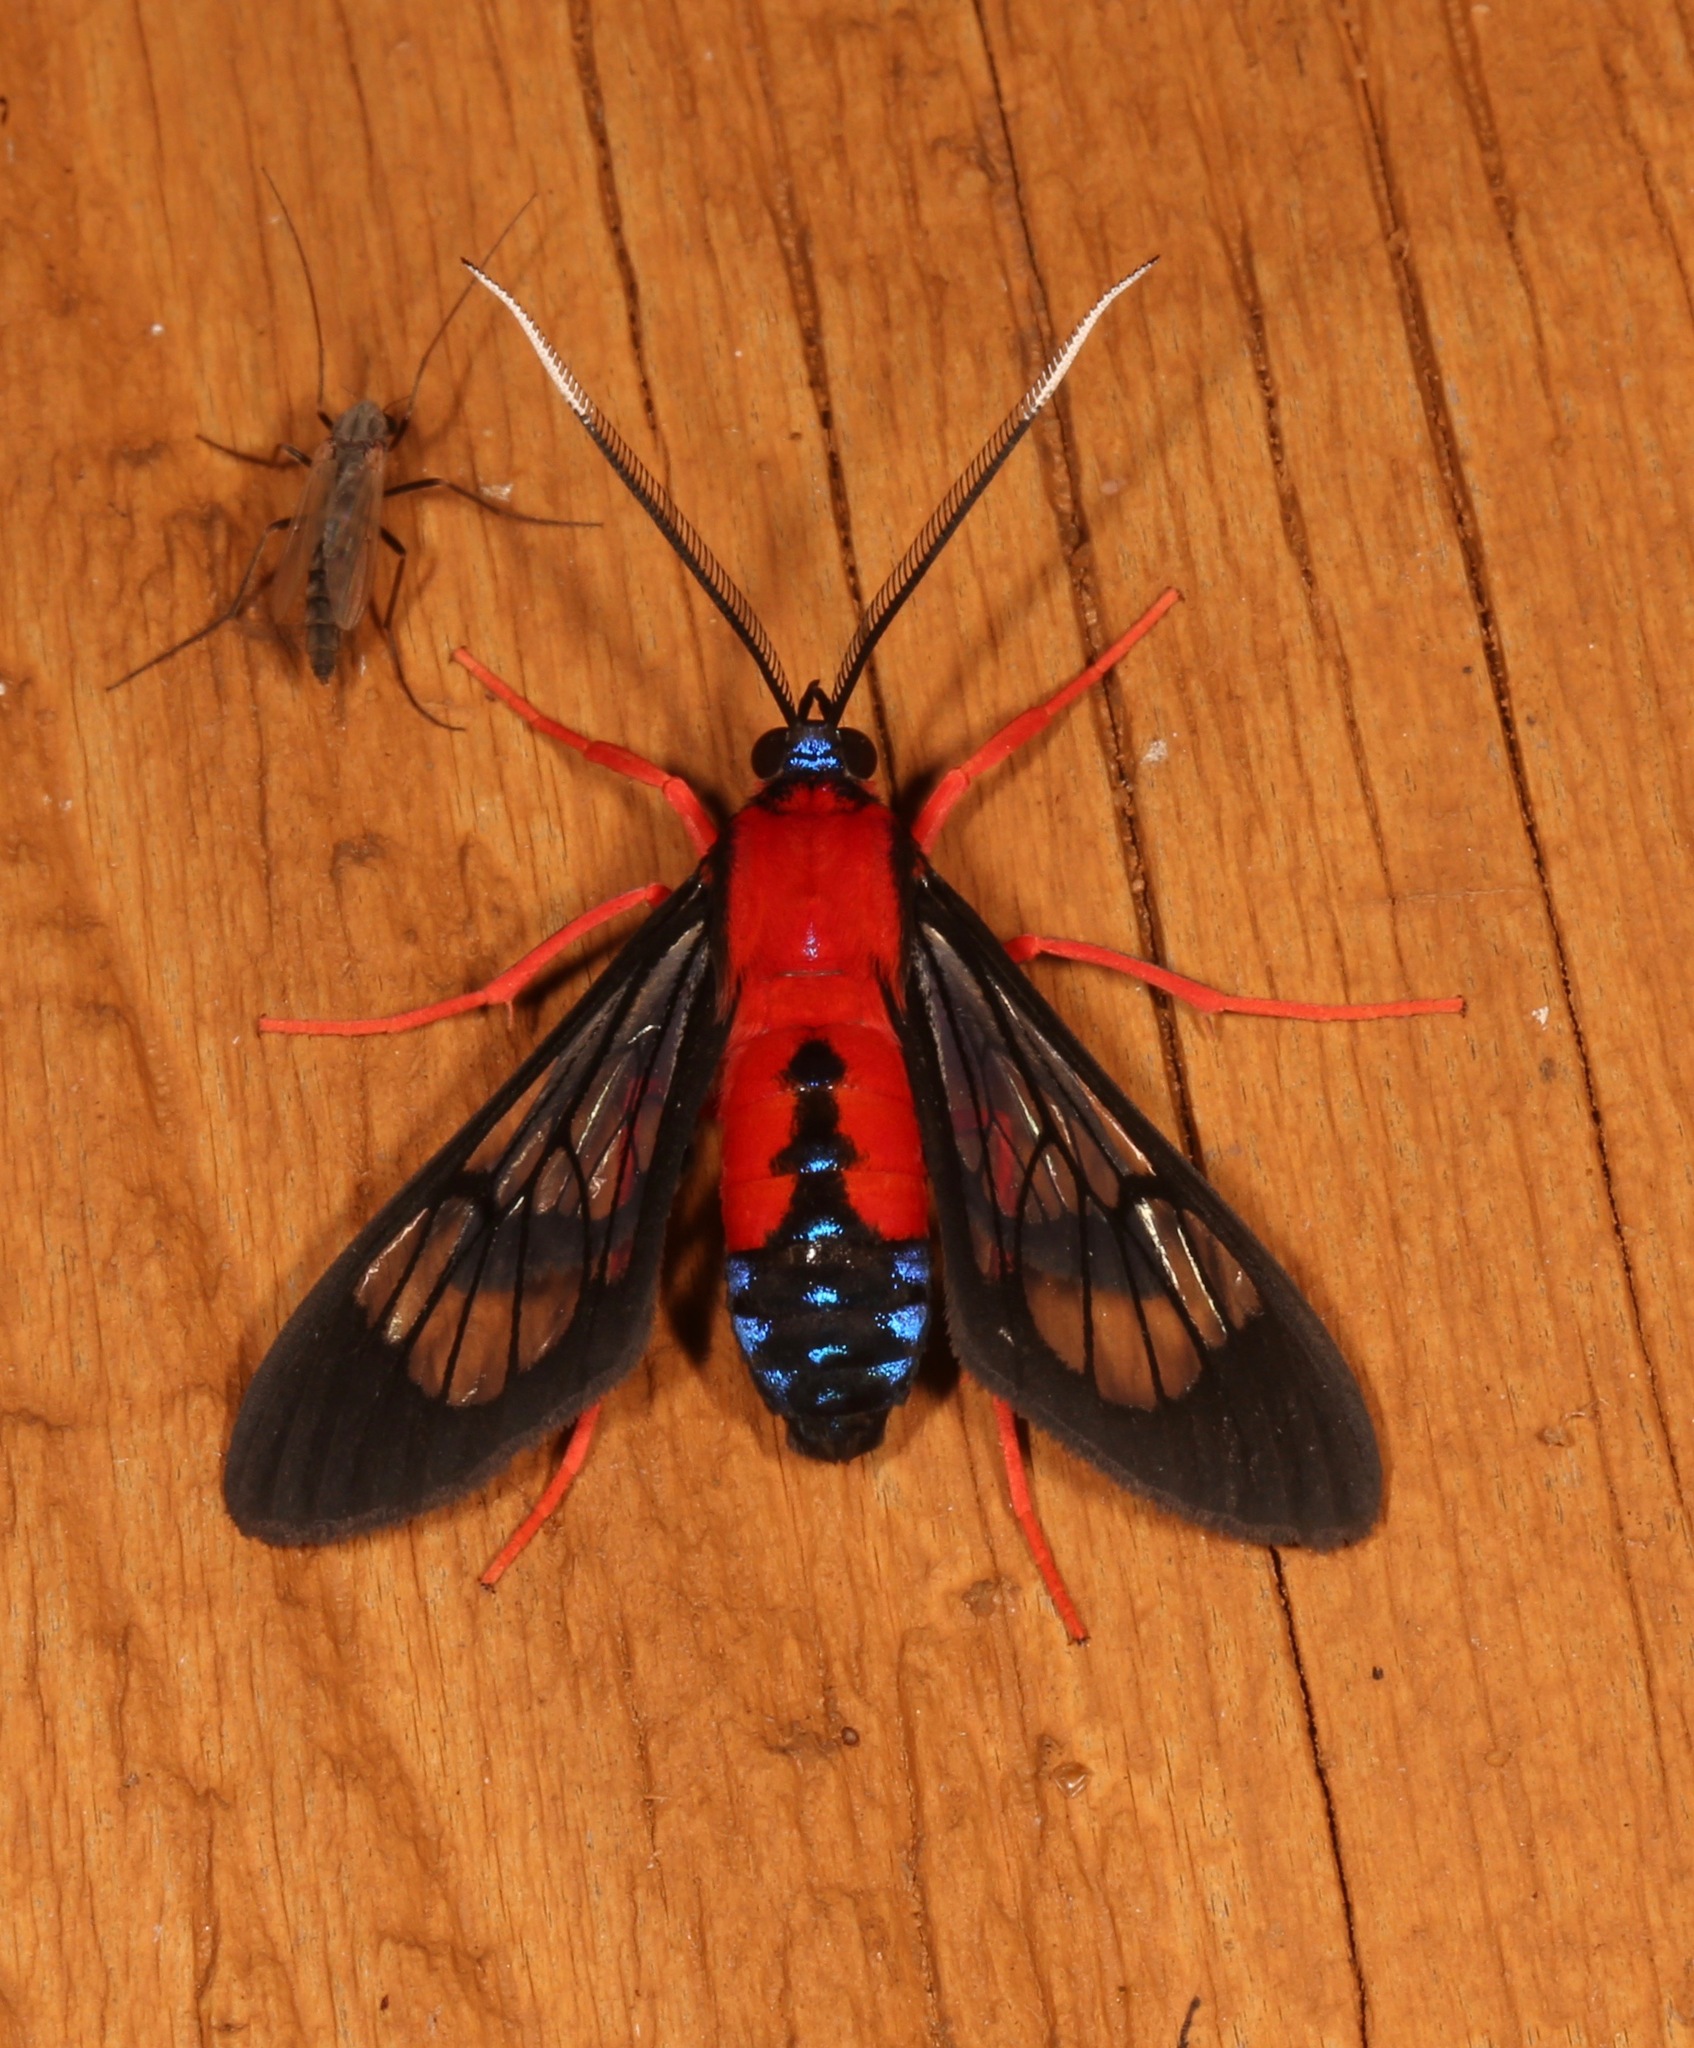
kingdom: Animalia
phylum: Arthropoda
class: Insecta
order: Lepidoptera
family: Erebidae
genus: Cosmosoma
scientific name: Cosmosoma myrodora
